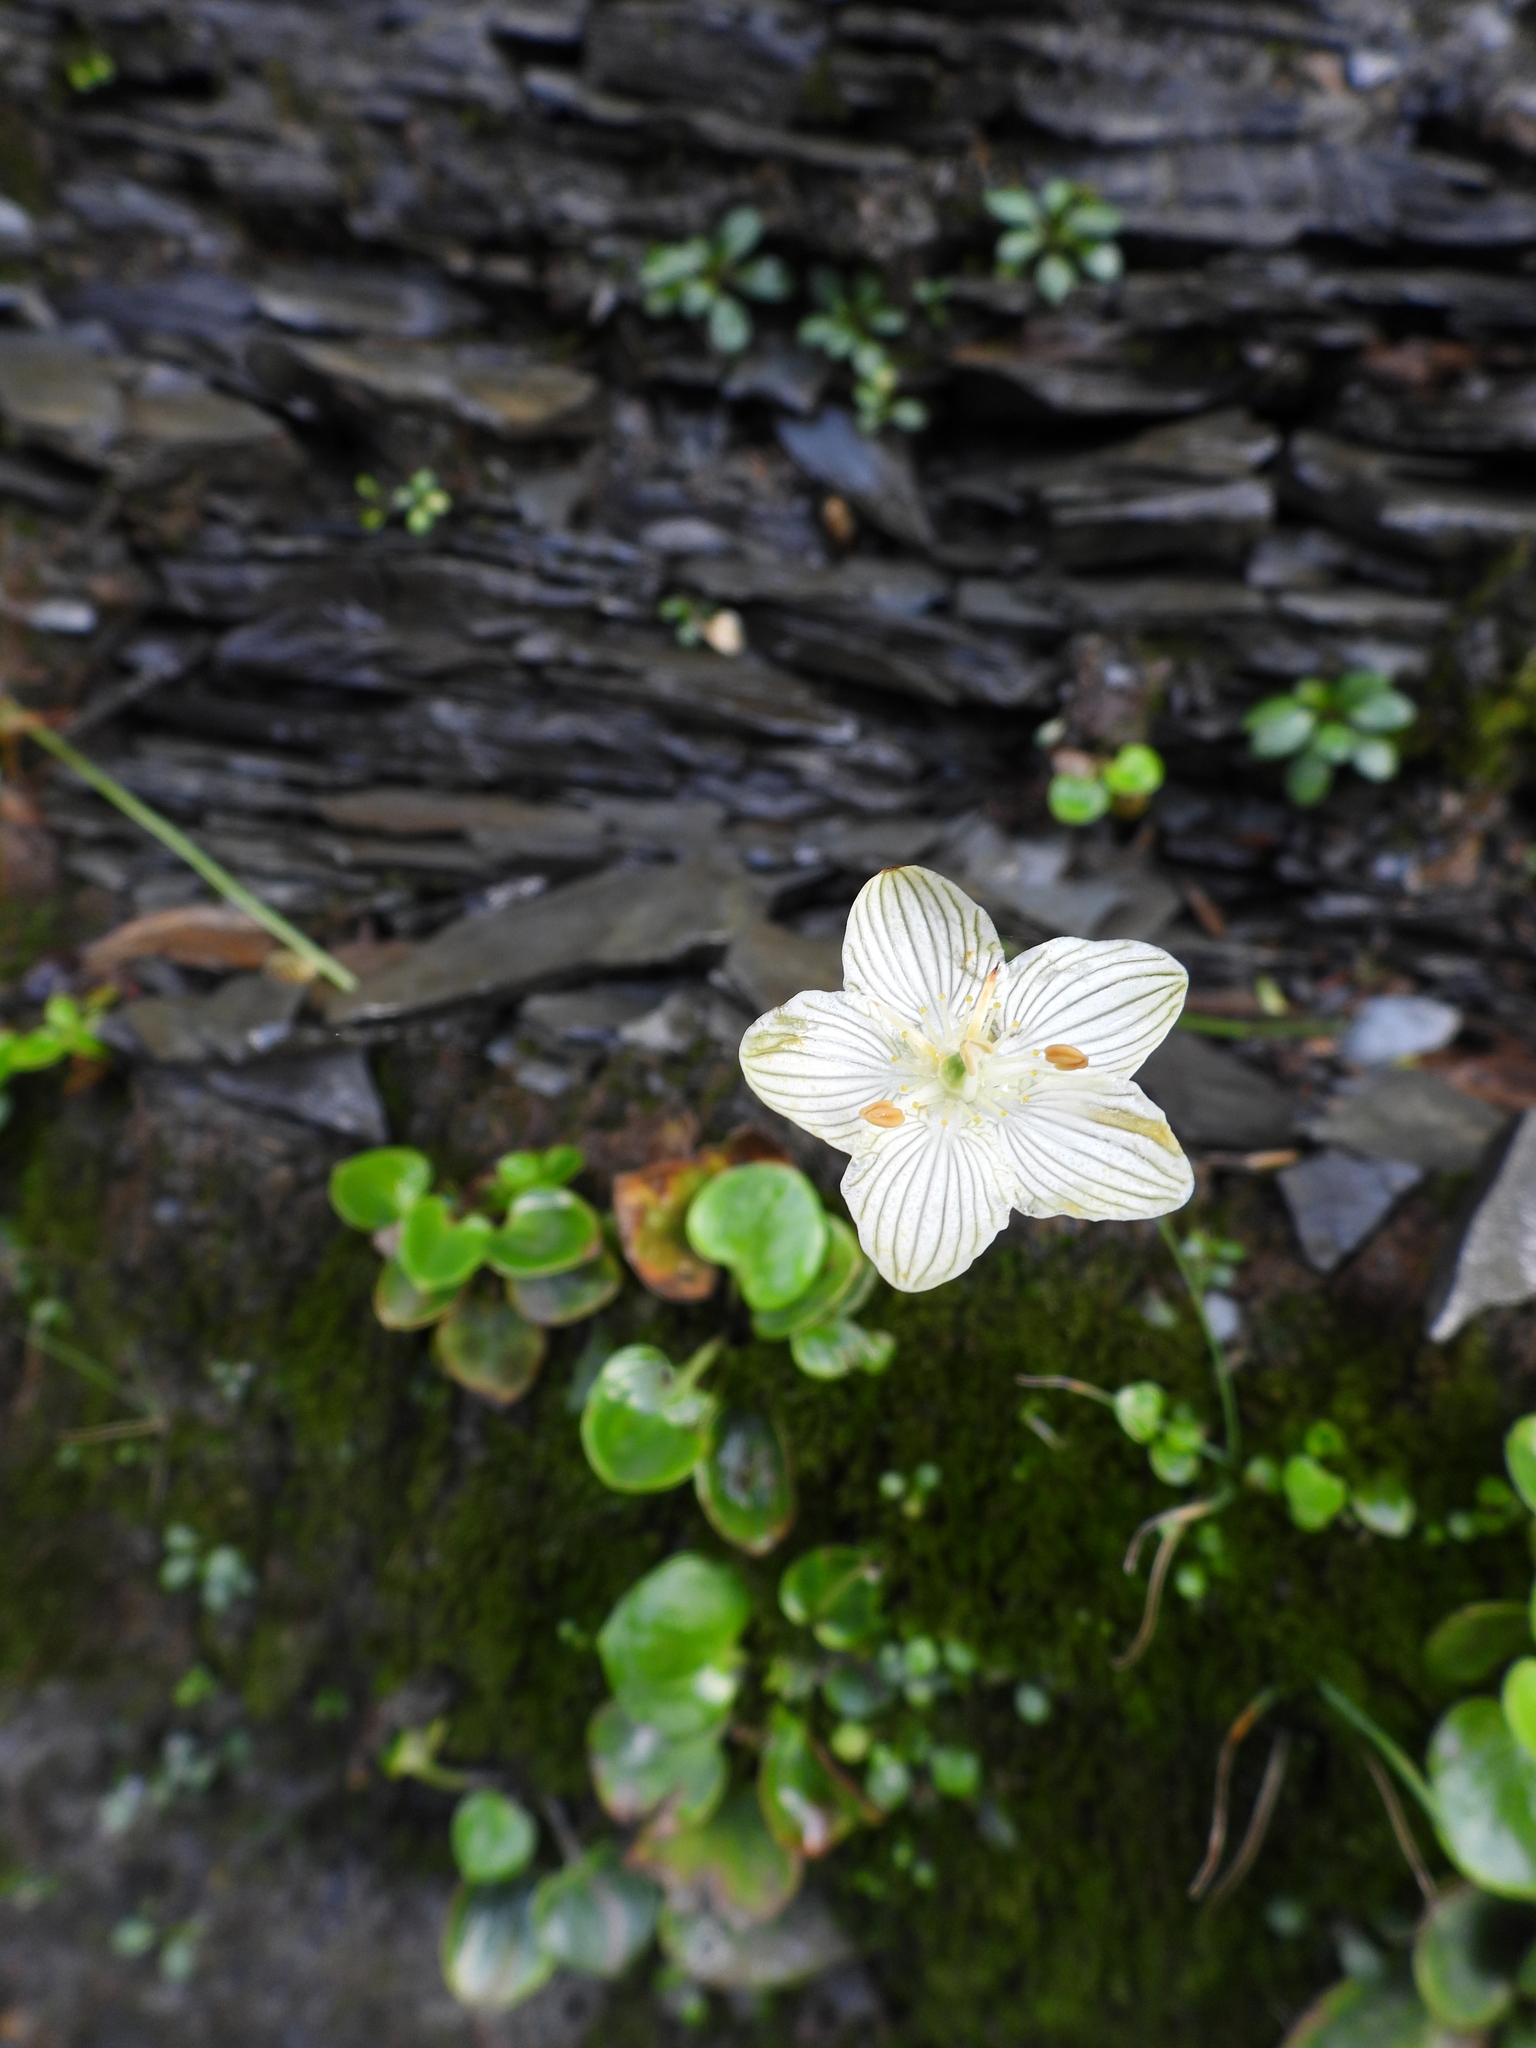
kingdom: Plantae
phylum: Tracheophyta
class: Magnoliopsida
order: Celastrales
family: Parnassiaceae
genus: Parnassia
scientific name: Parnassia glauca
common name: American grass-of-parnassus
